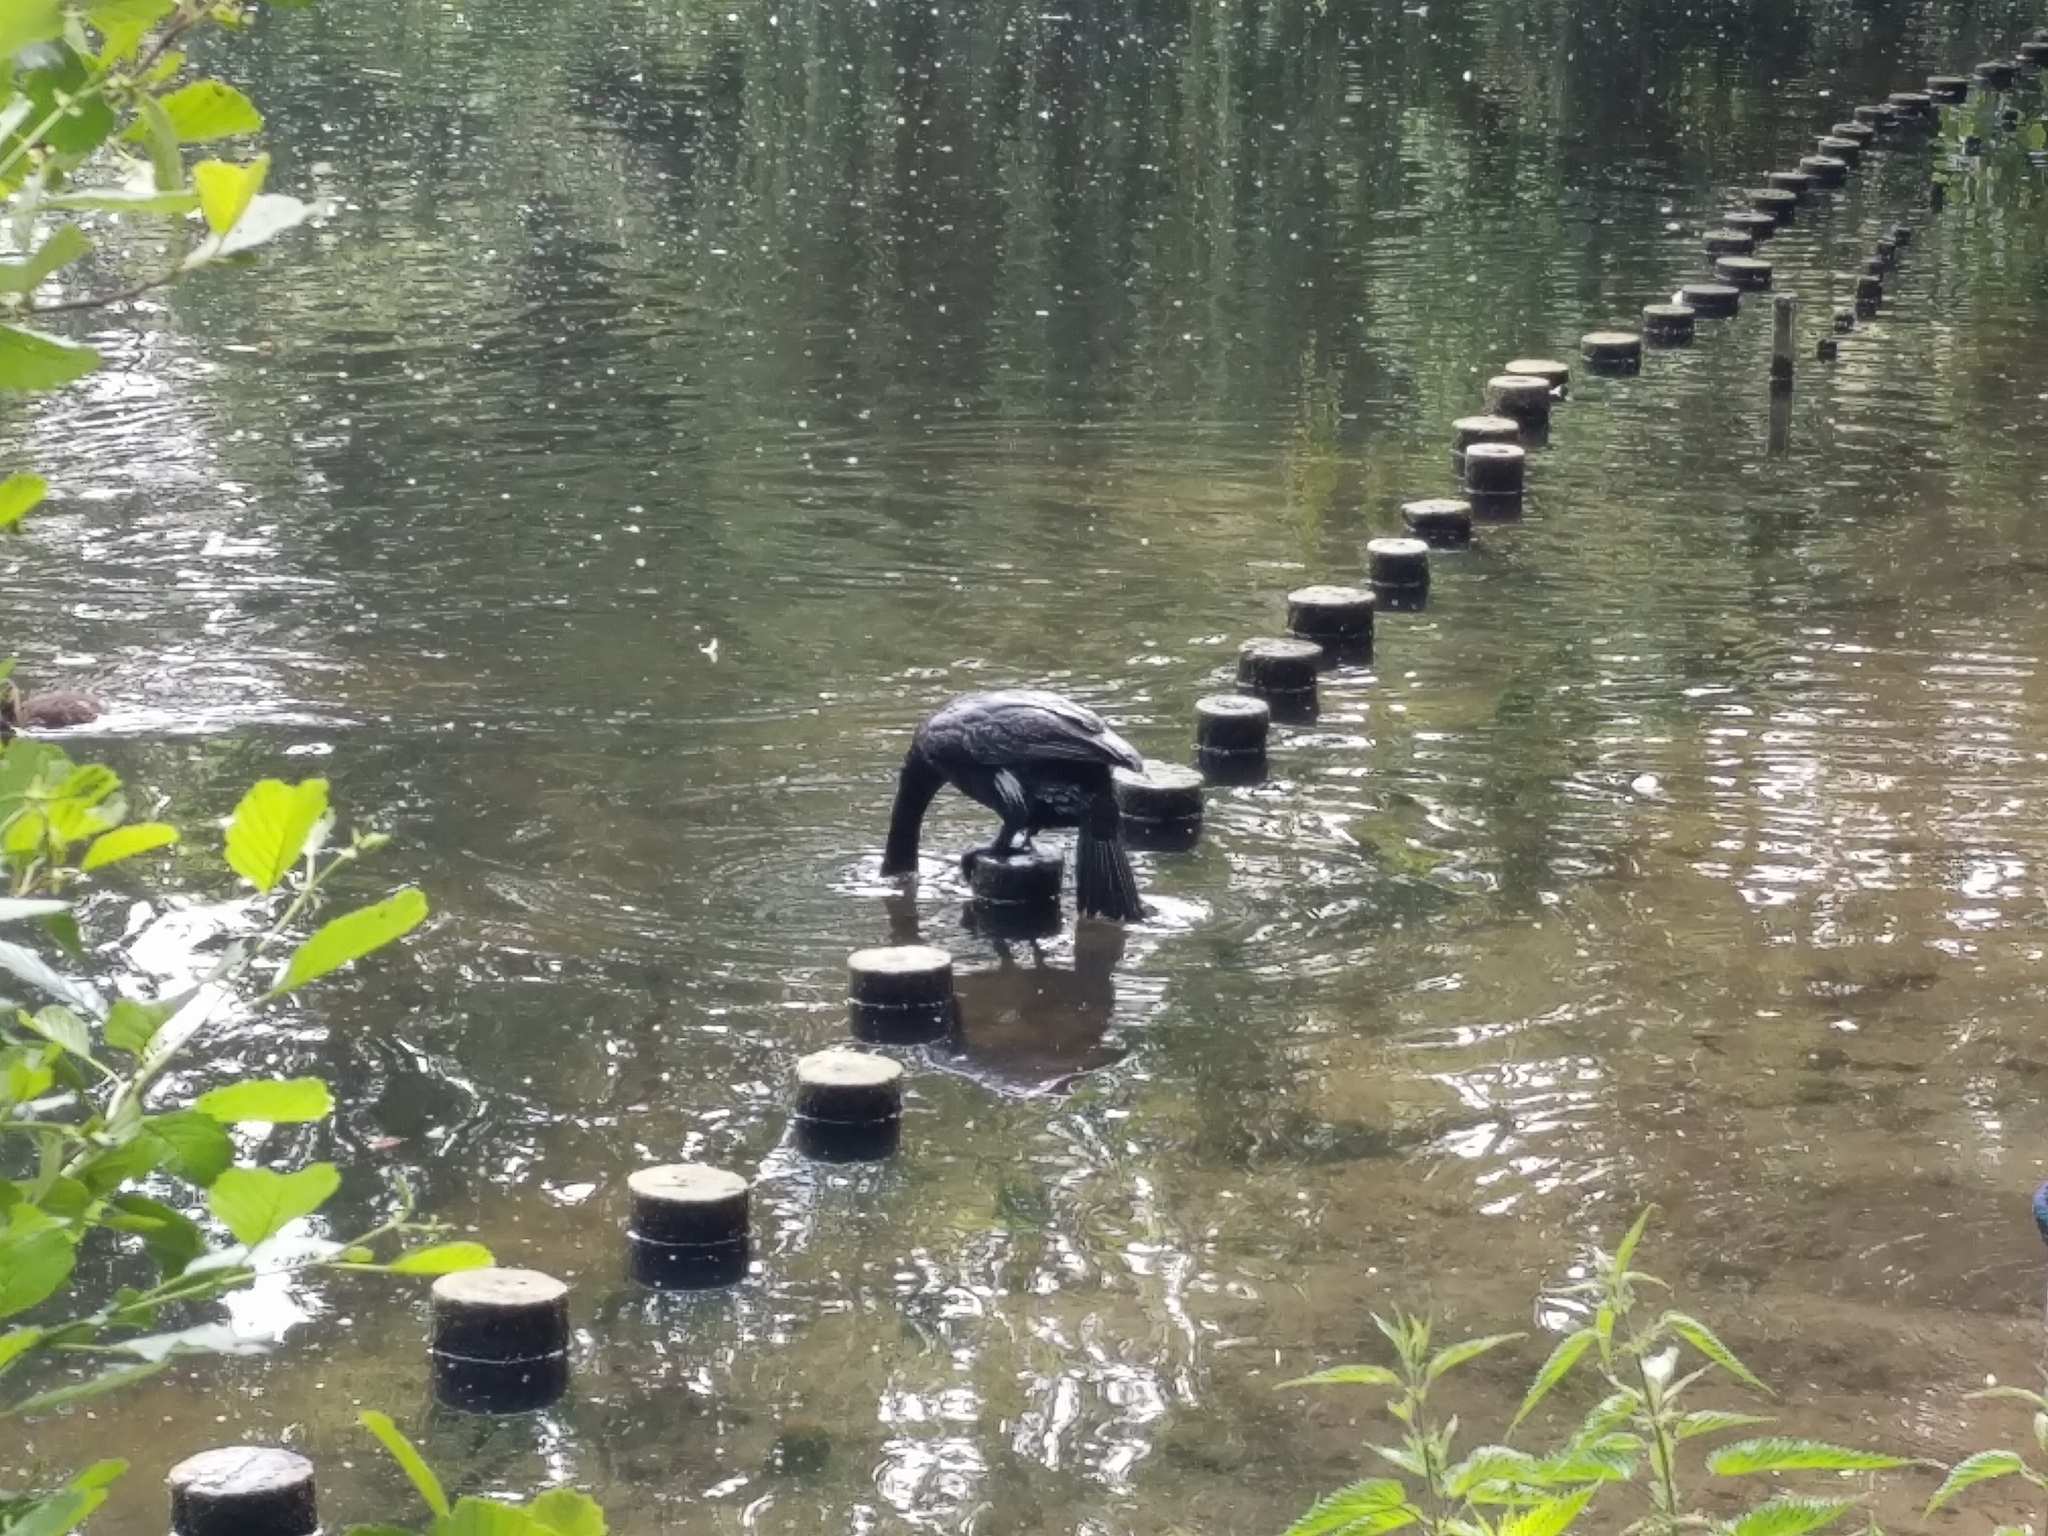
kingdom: Animalia
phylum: Chordata
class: Aves
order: Suliformes
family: Phalacrocoracidae
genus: Phalacrocorax
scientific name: Phalacrocorax carbo
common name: Great cormorant
